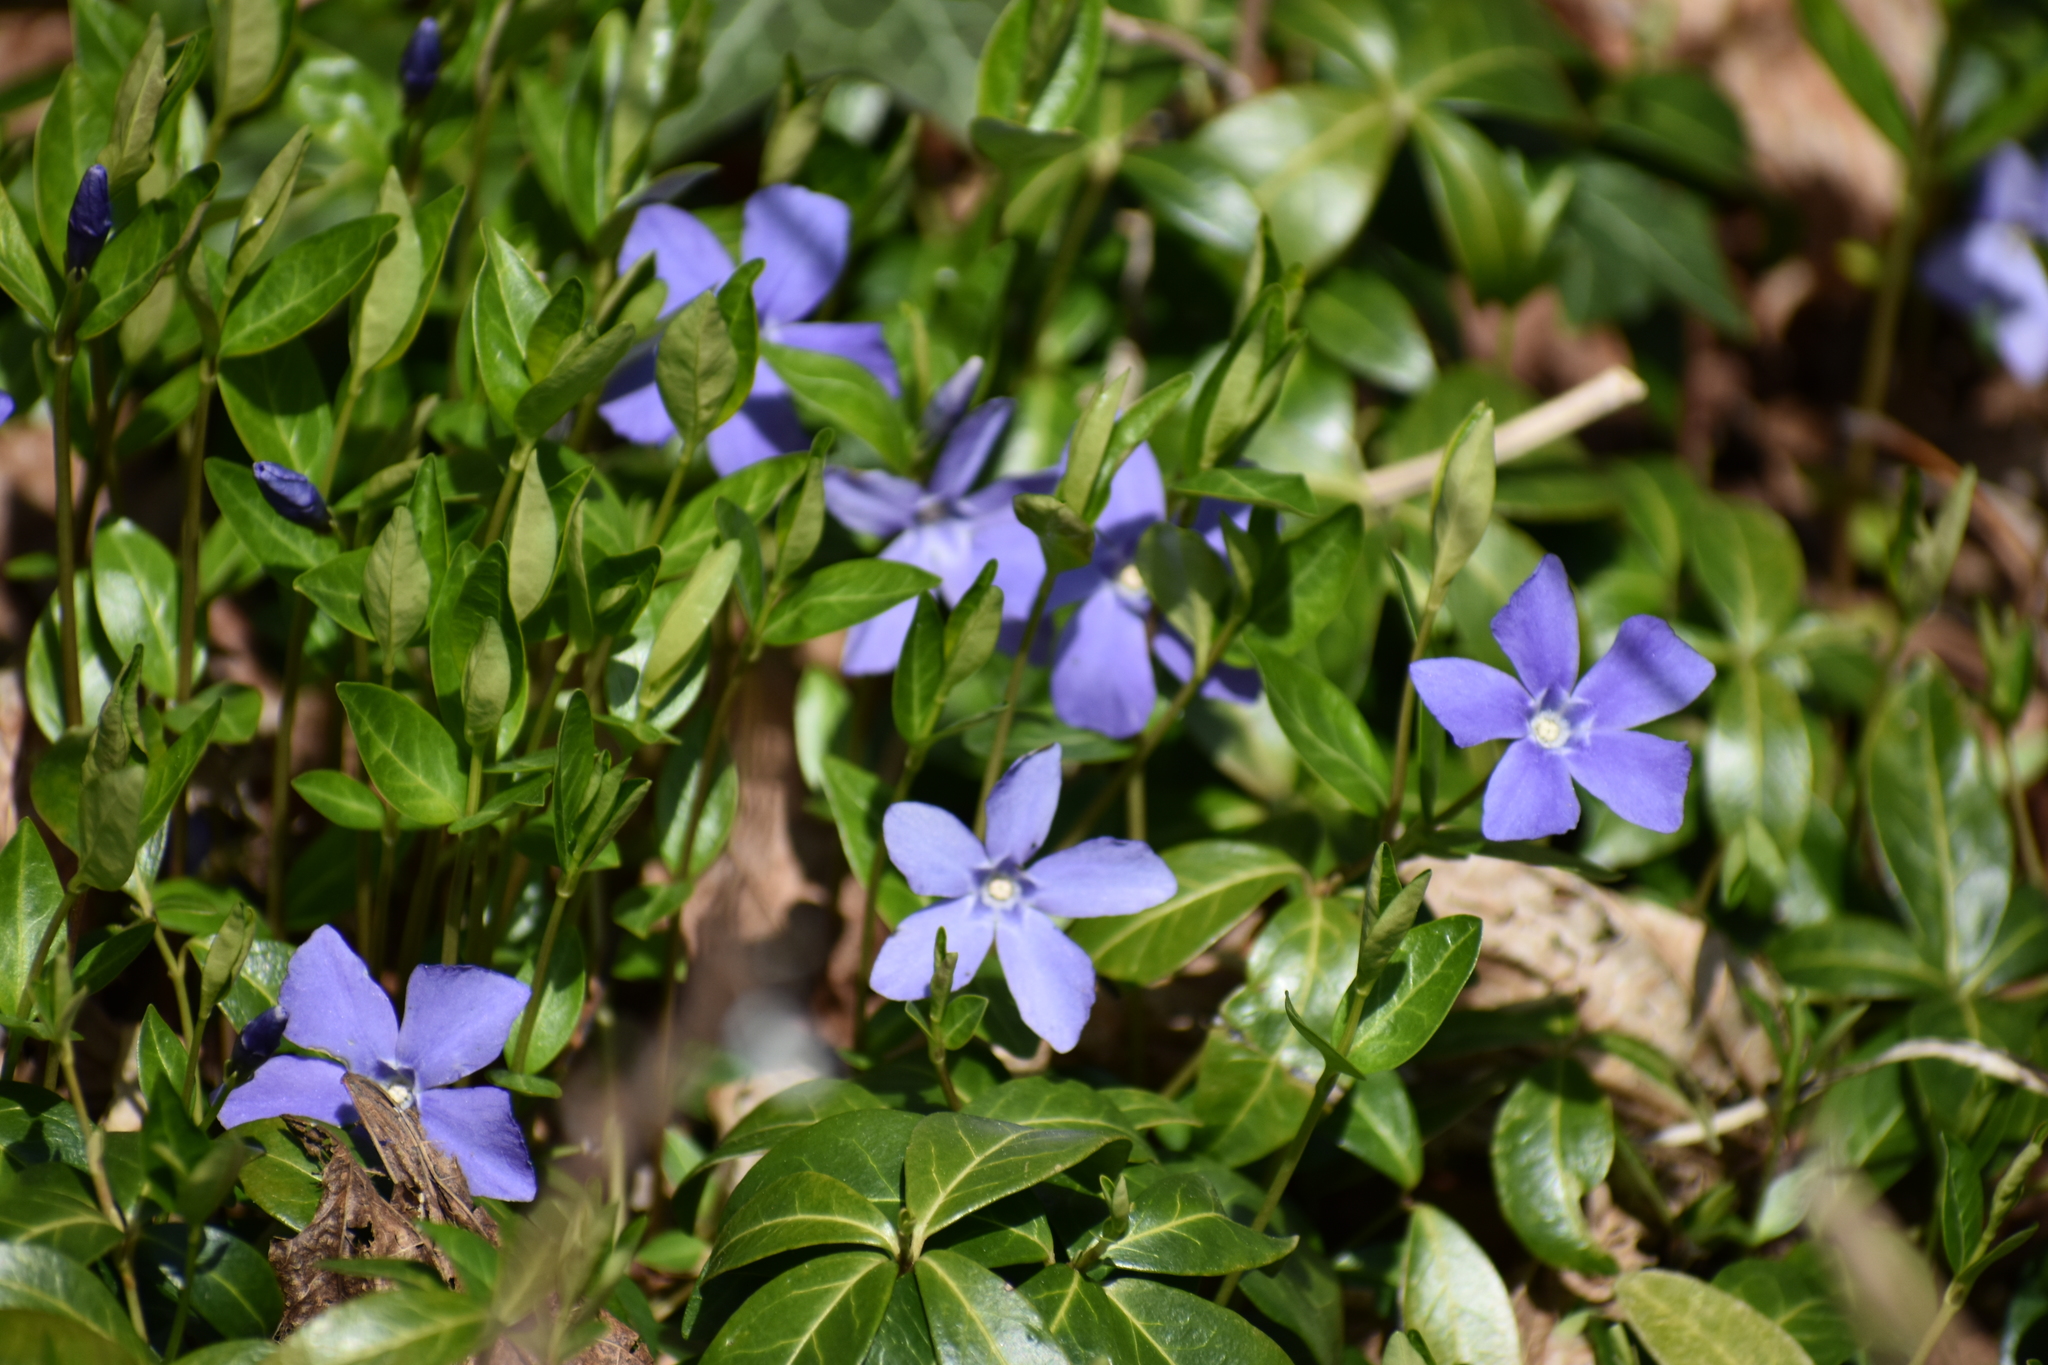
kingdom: Plantae
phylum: Tracheophyta
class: Magnoliopsida
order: Gentianales
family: Apocynaceae
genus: Vinca
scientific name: Vinca minor
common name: Lesser periwinkle
